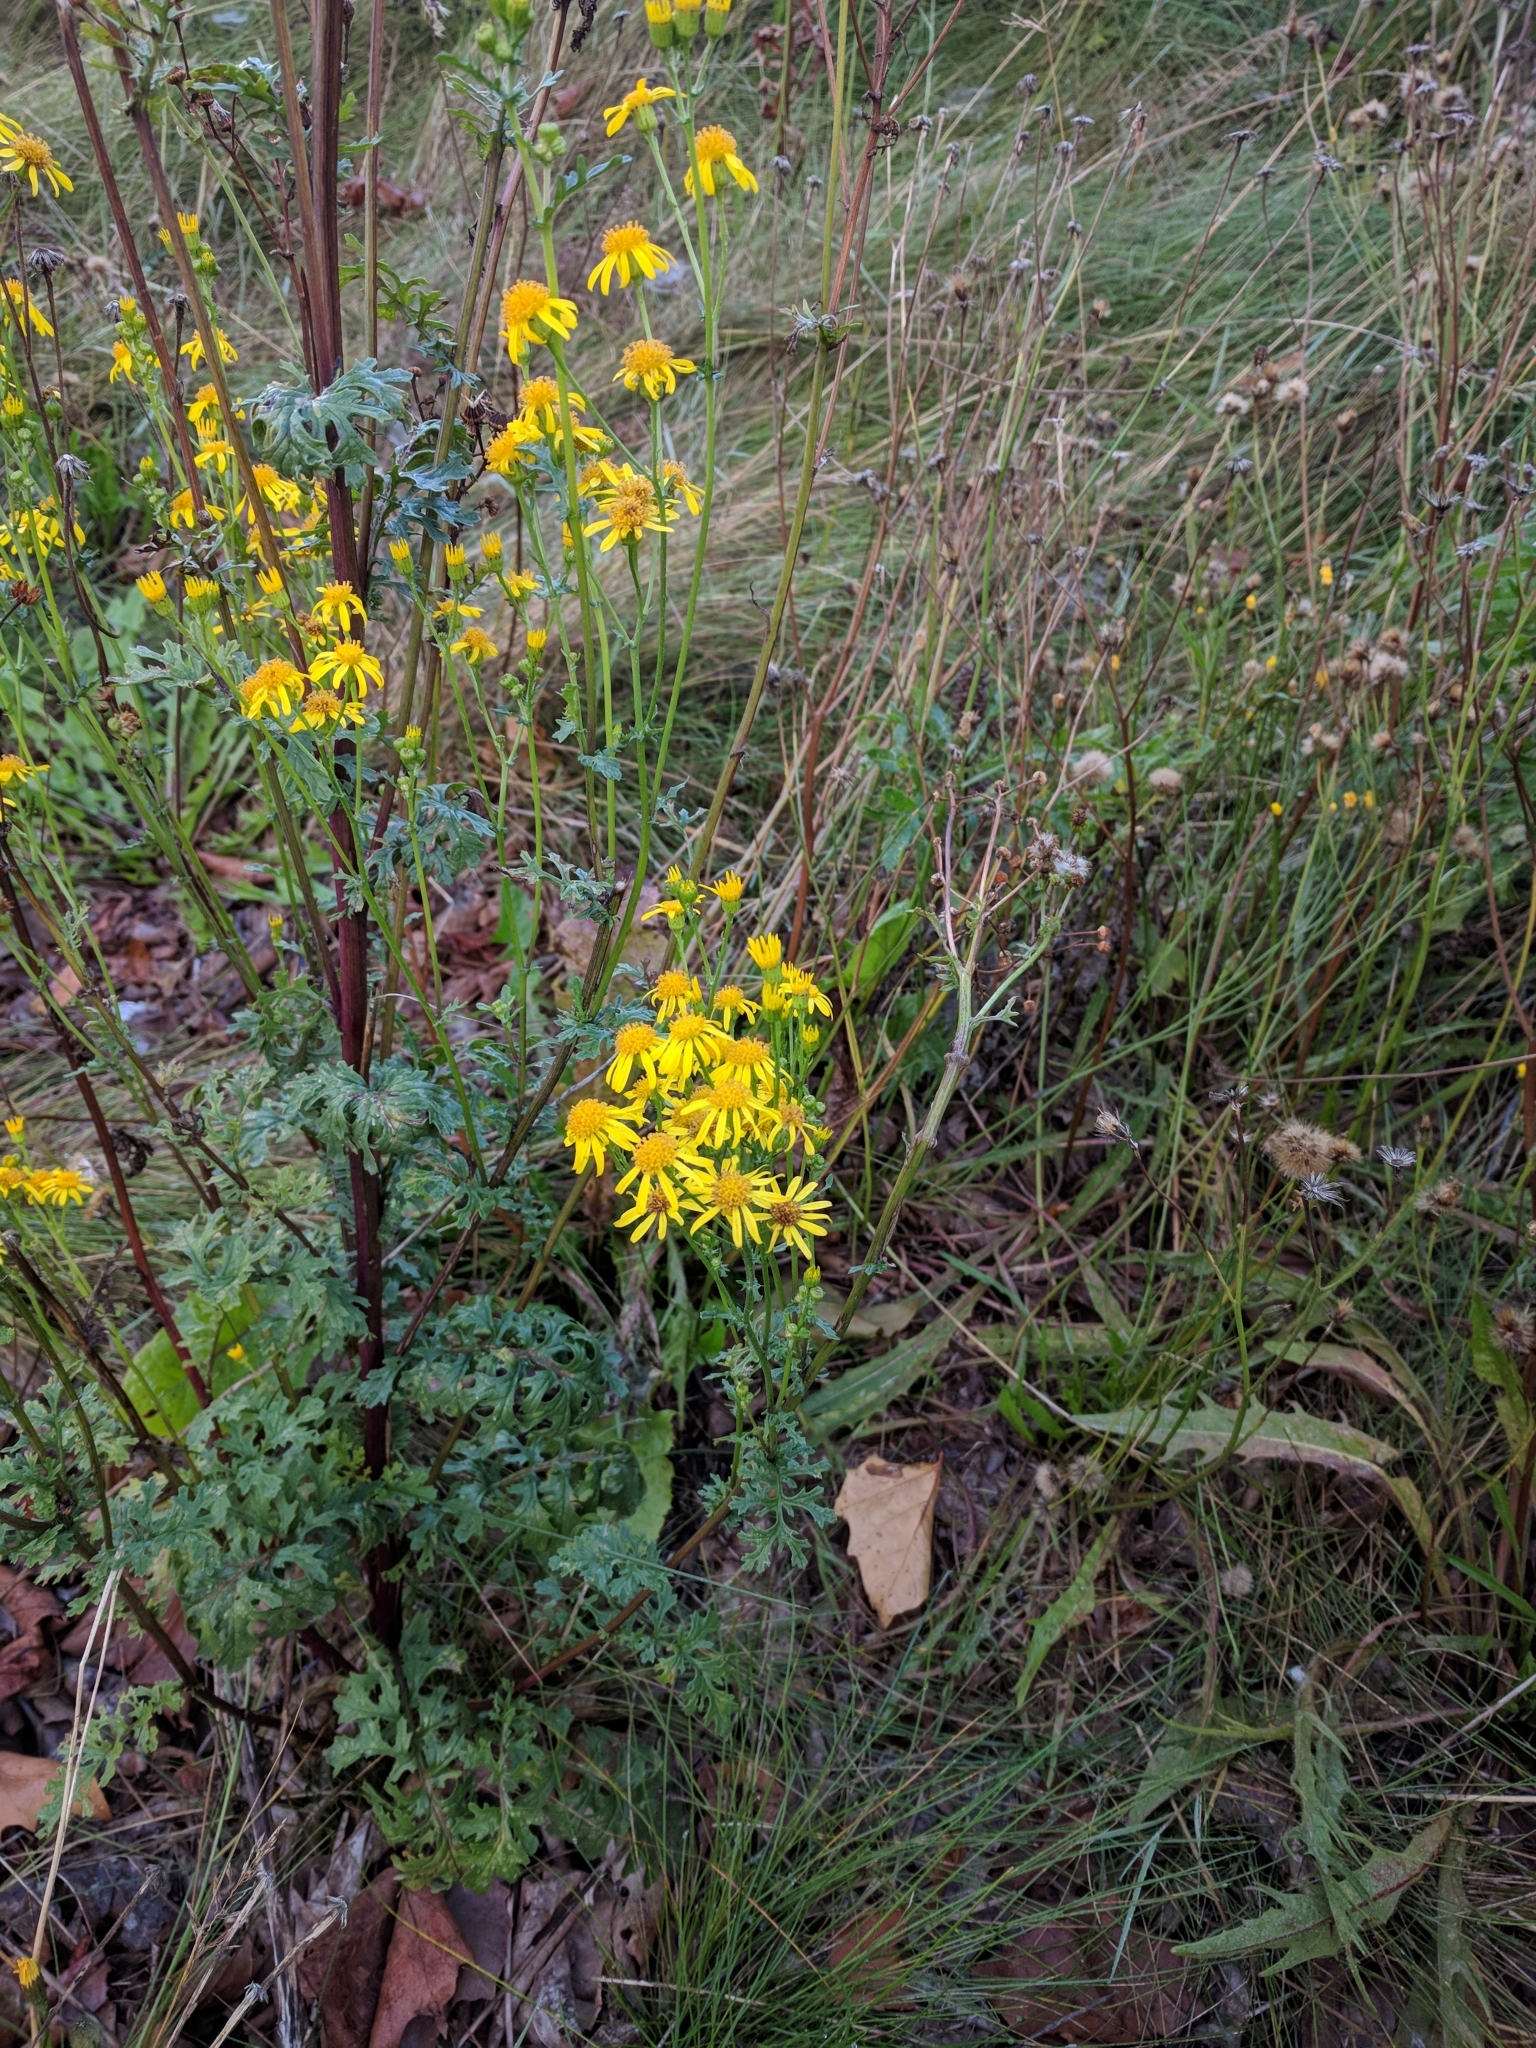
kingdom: Plantae
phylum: Tracheophyta
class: Magnoliopsida
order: Asterales
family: Asteraceae
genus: Jacobaea
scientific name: Jacobaea vulgaris
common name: Stinking willie
